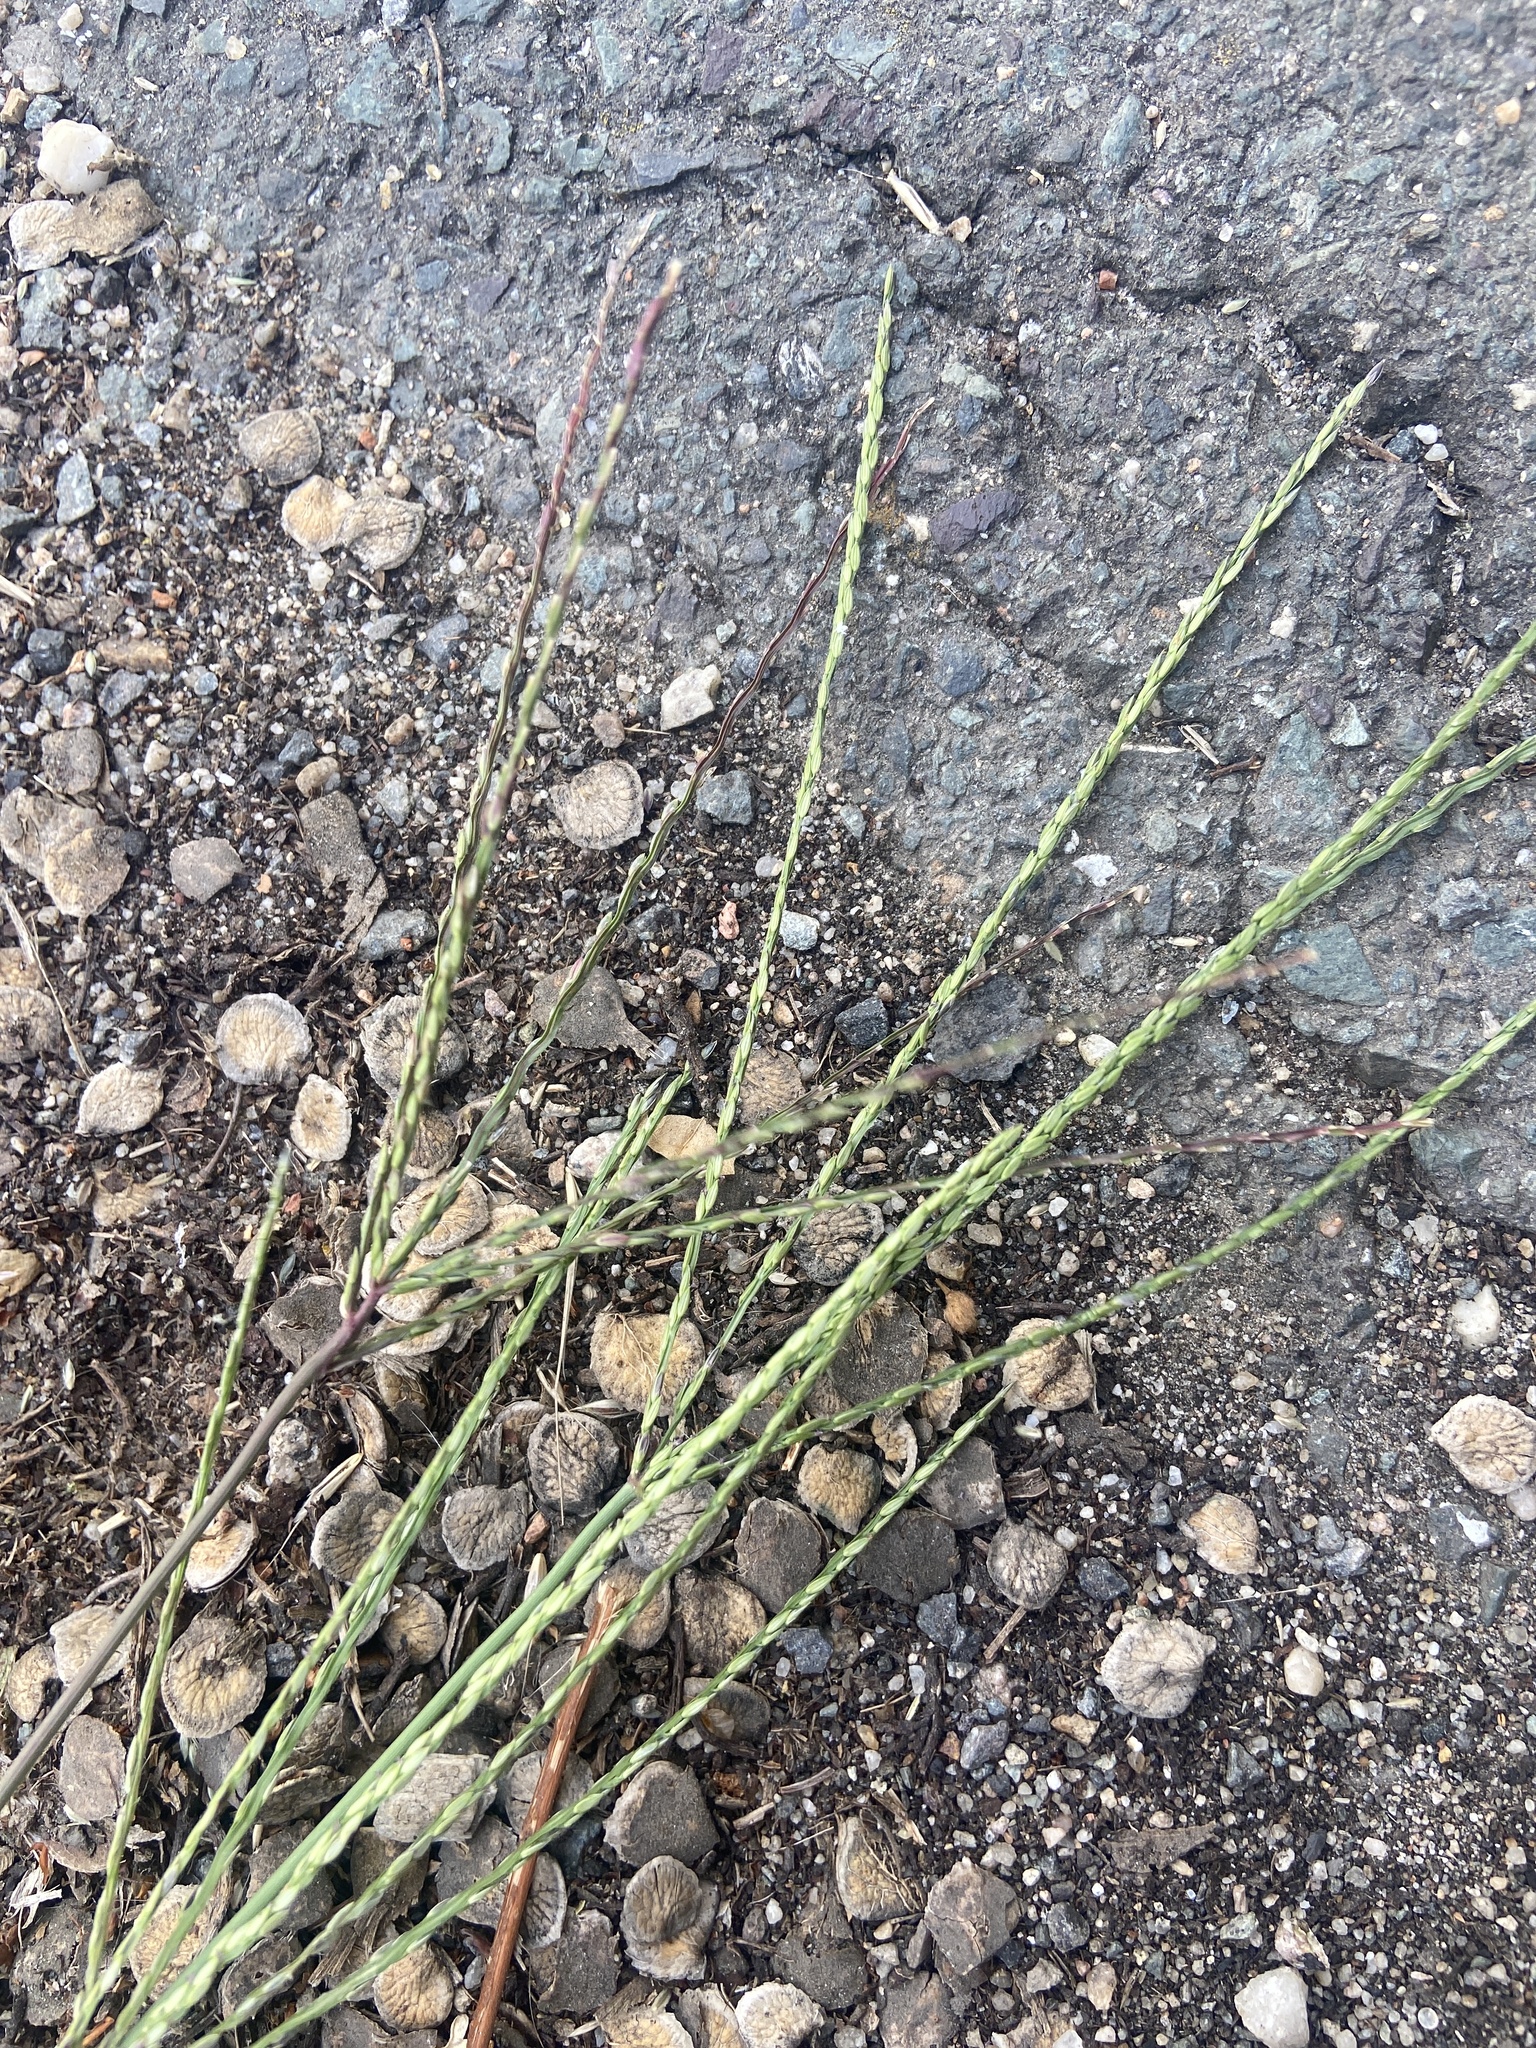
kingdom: Plantae
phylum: Tracheophyta
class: Liliopsida
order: Poales
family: Poaceae
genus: Digitaria
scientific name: Digitaria sanguinalis
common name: Hairy crabgrass
